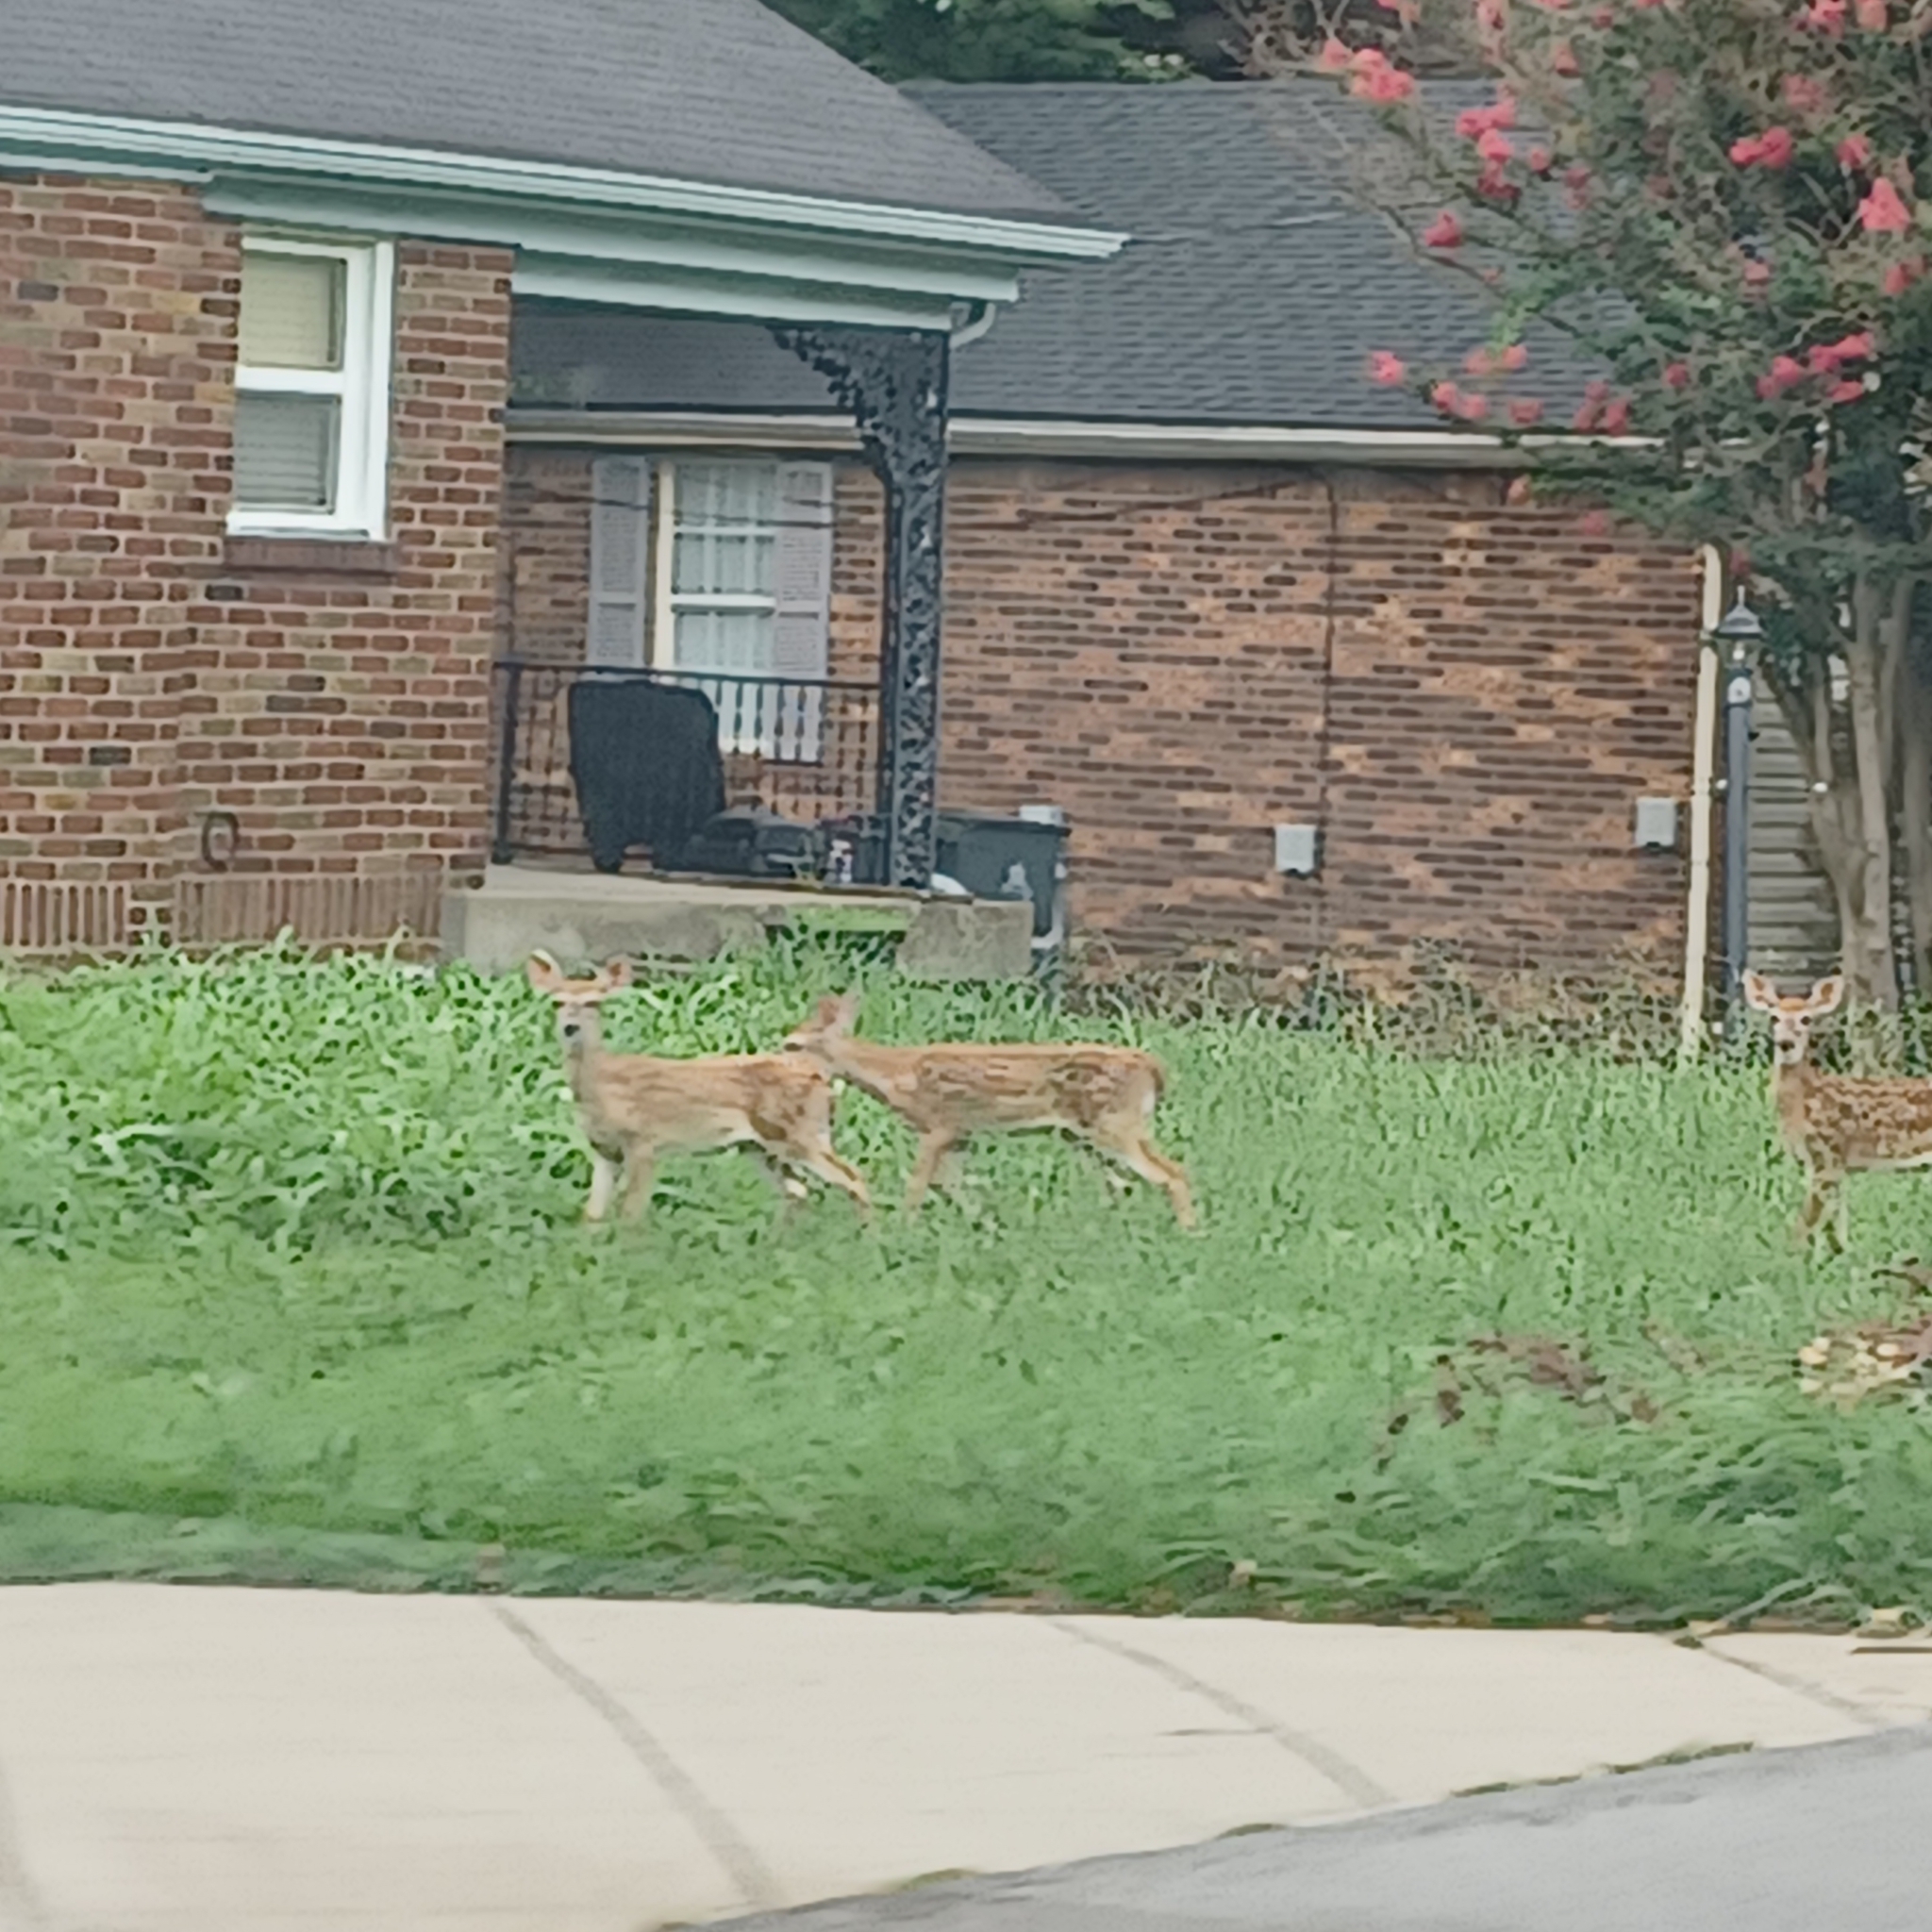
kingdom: Animalia
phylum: Chordata
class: Mammalia
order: Artiodactyla
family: Cervidae
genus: Odocoileus
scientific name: Odocoileus virginianus
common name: White-tailed deer
